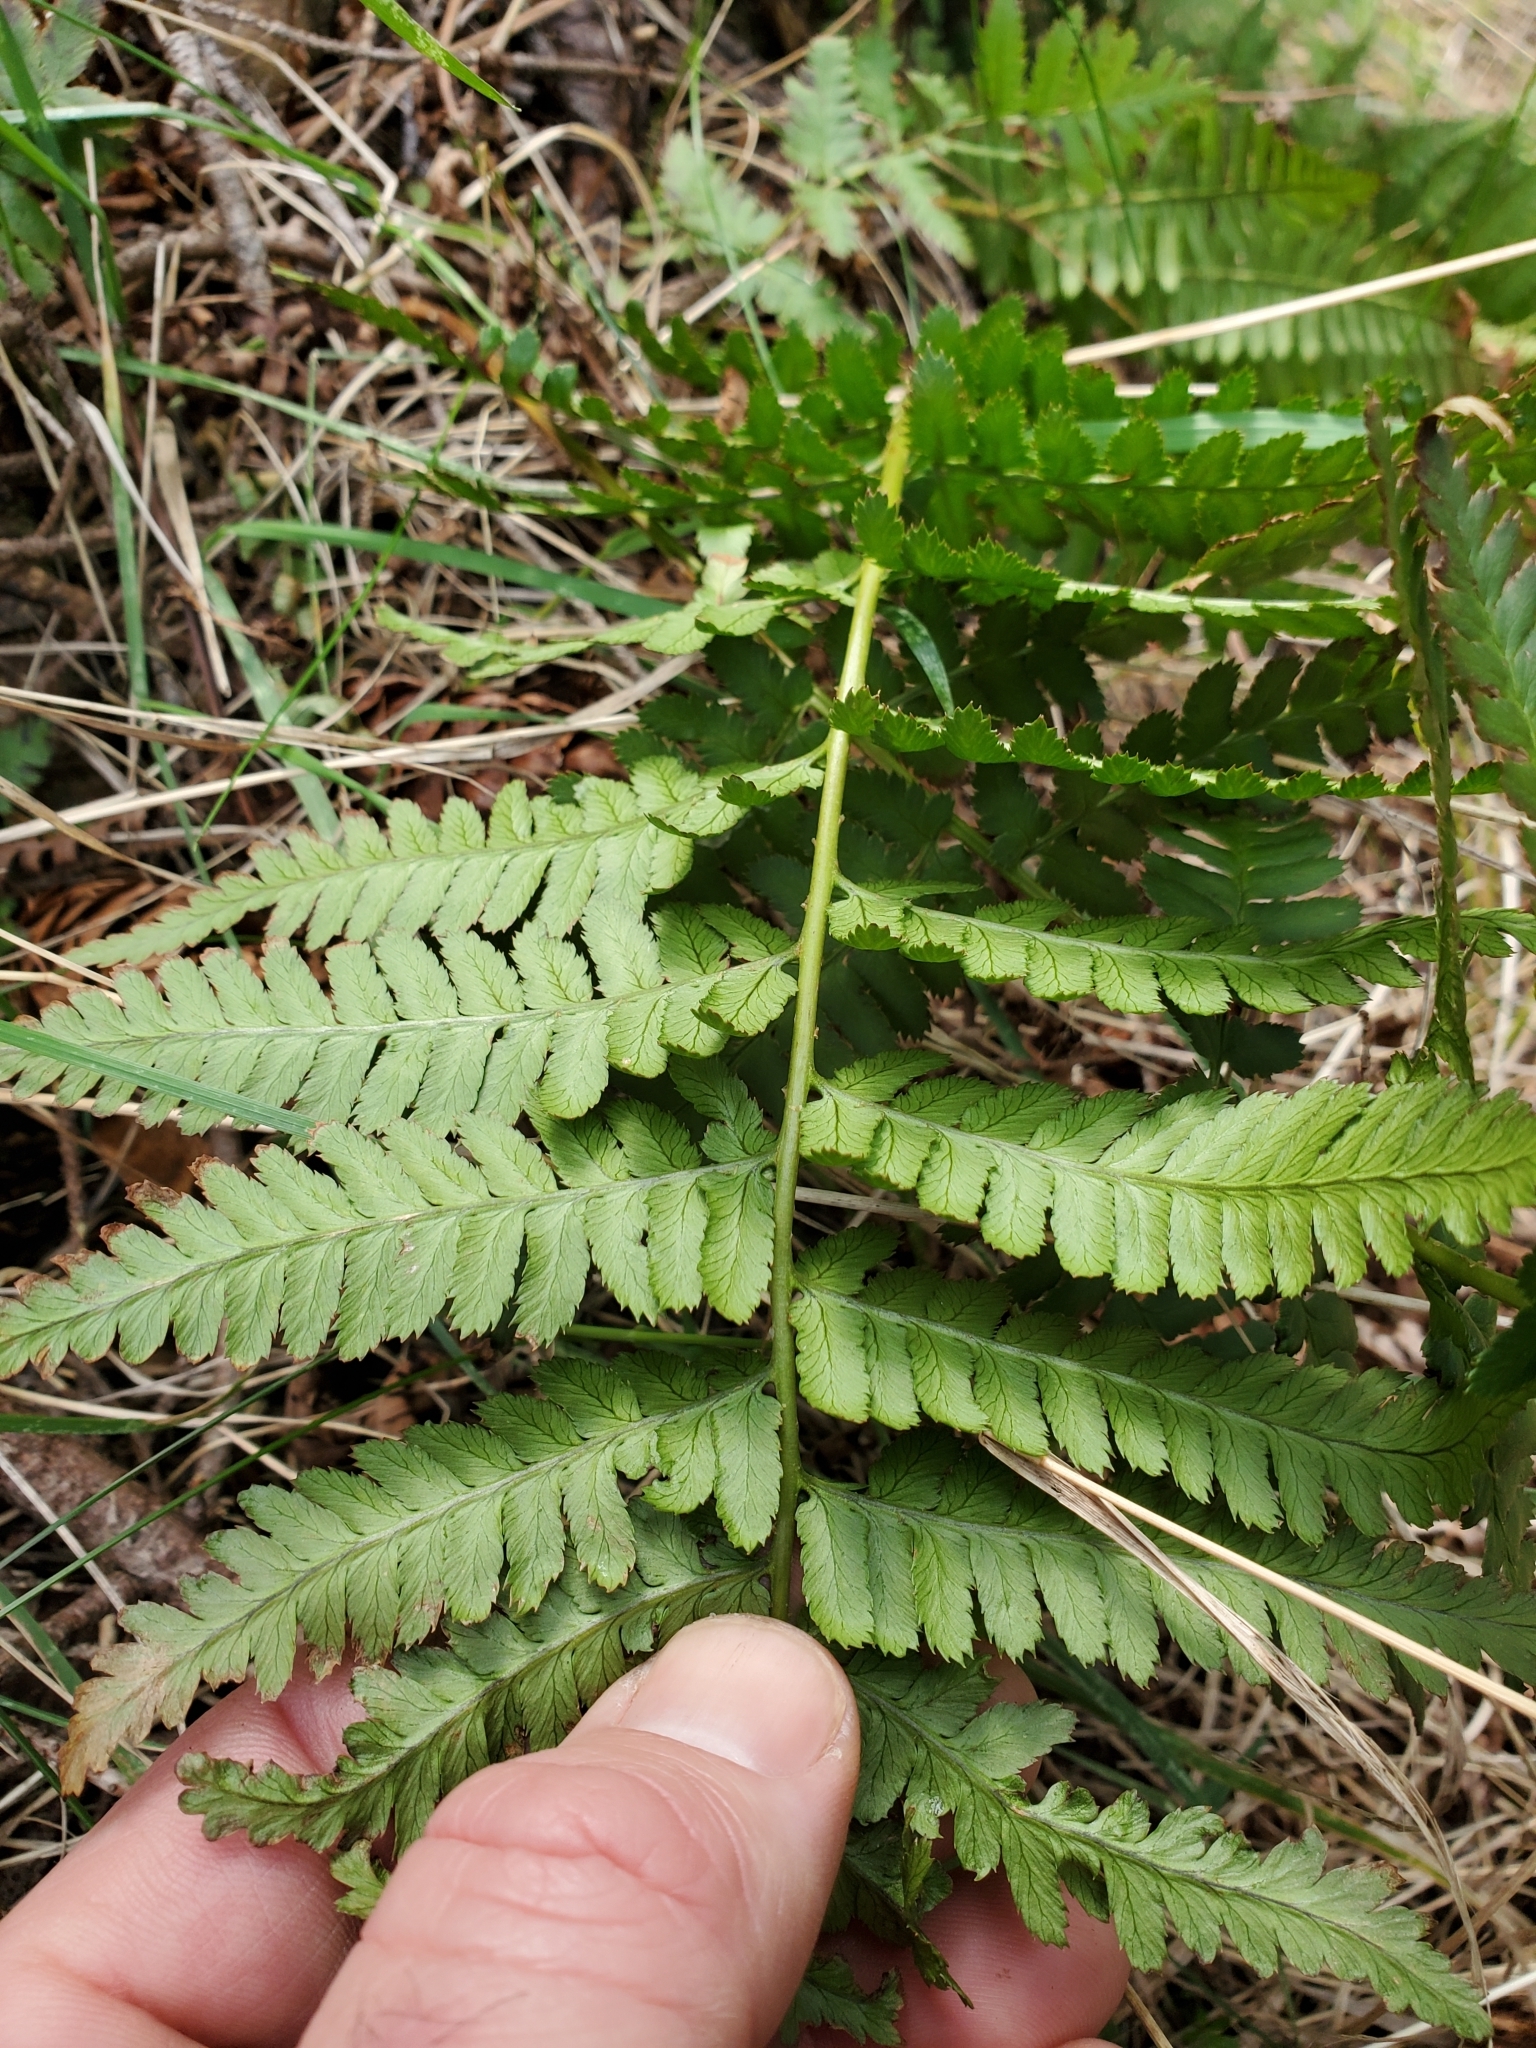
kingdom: Plantae
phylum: Tracheophyta
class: Polypodiopsida
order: Polypodiales
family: Dryopteridaceae
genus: Dryopteris
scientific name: Dryopteris arguta
